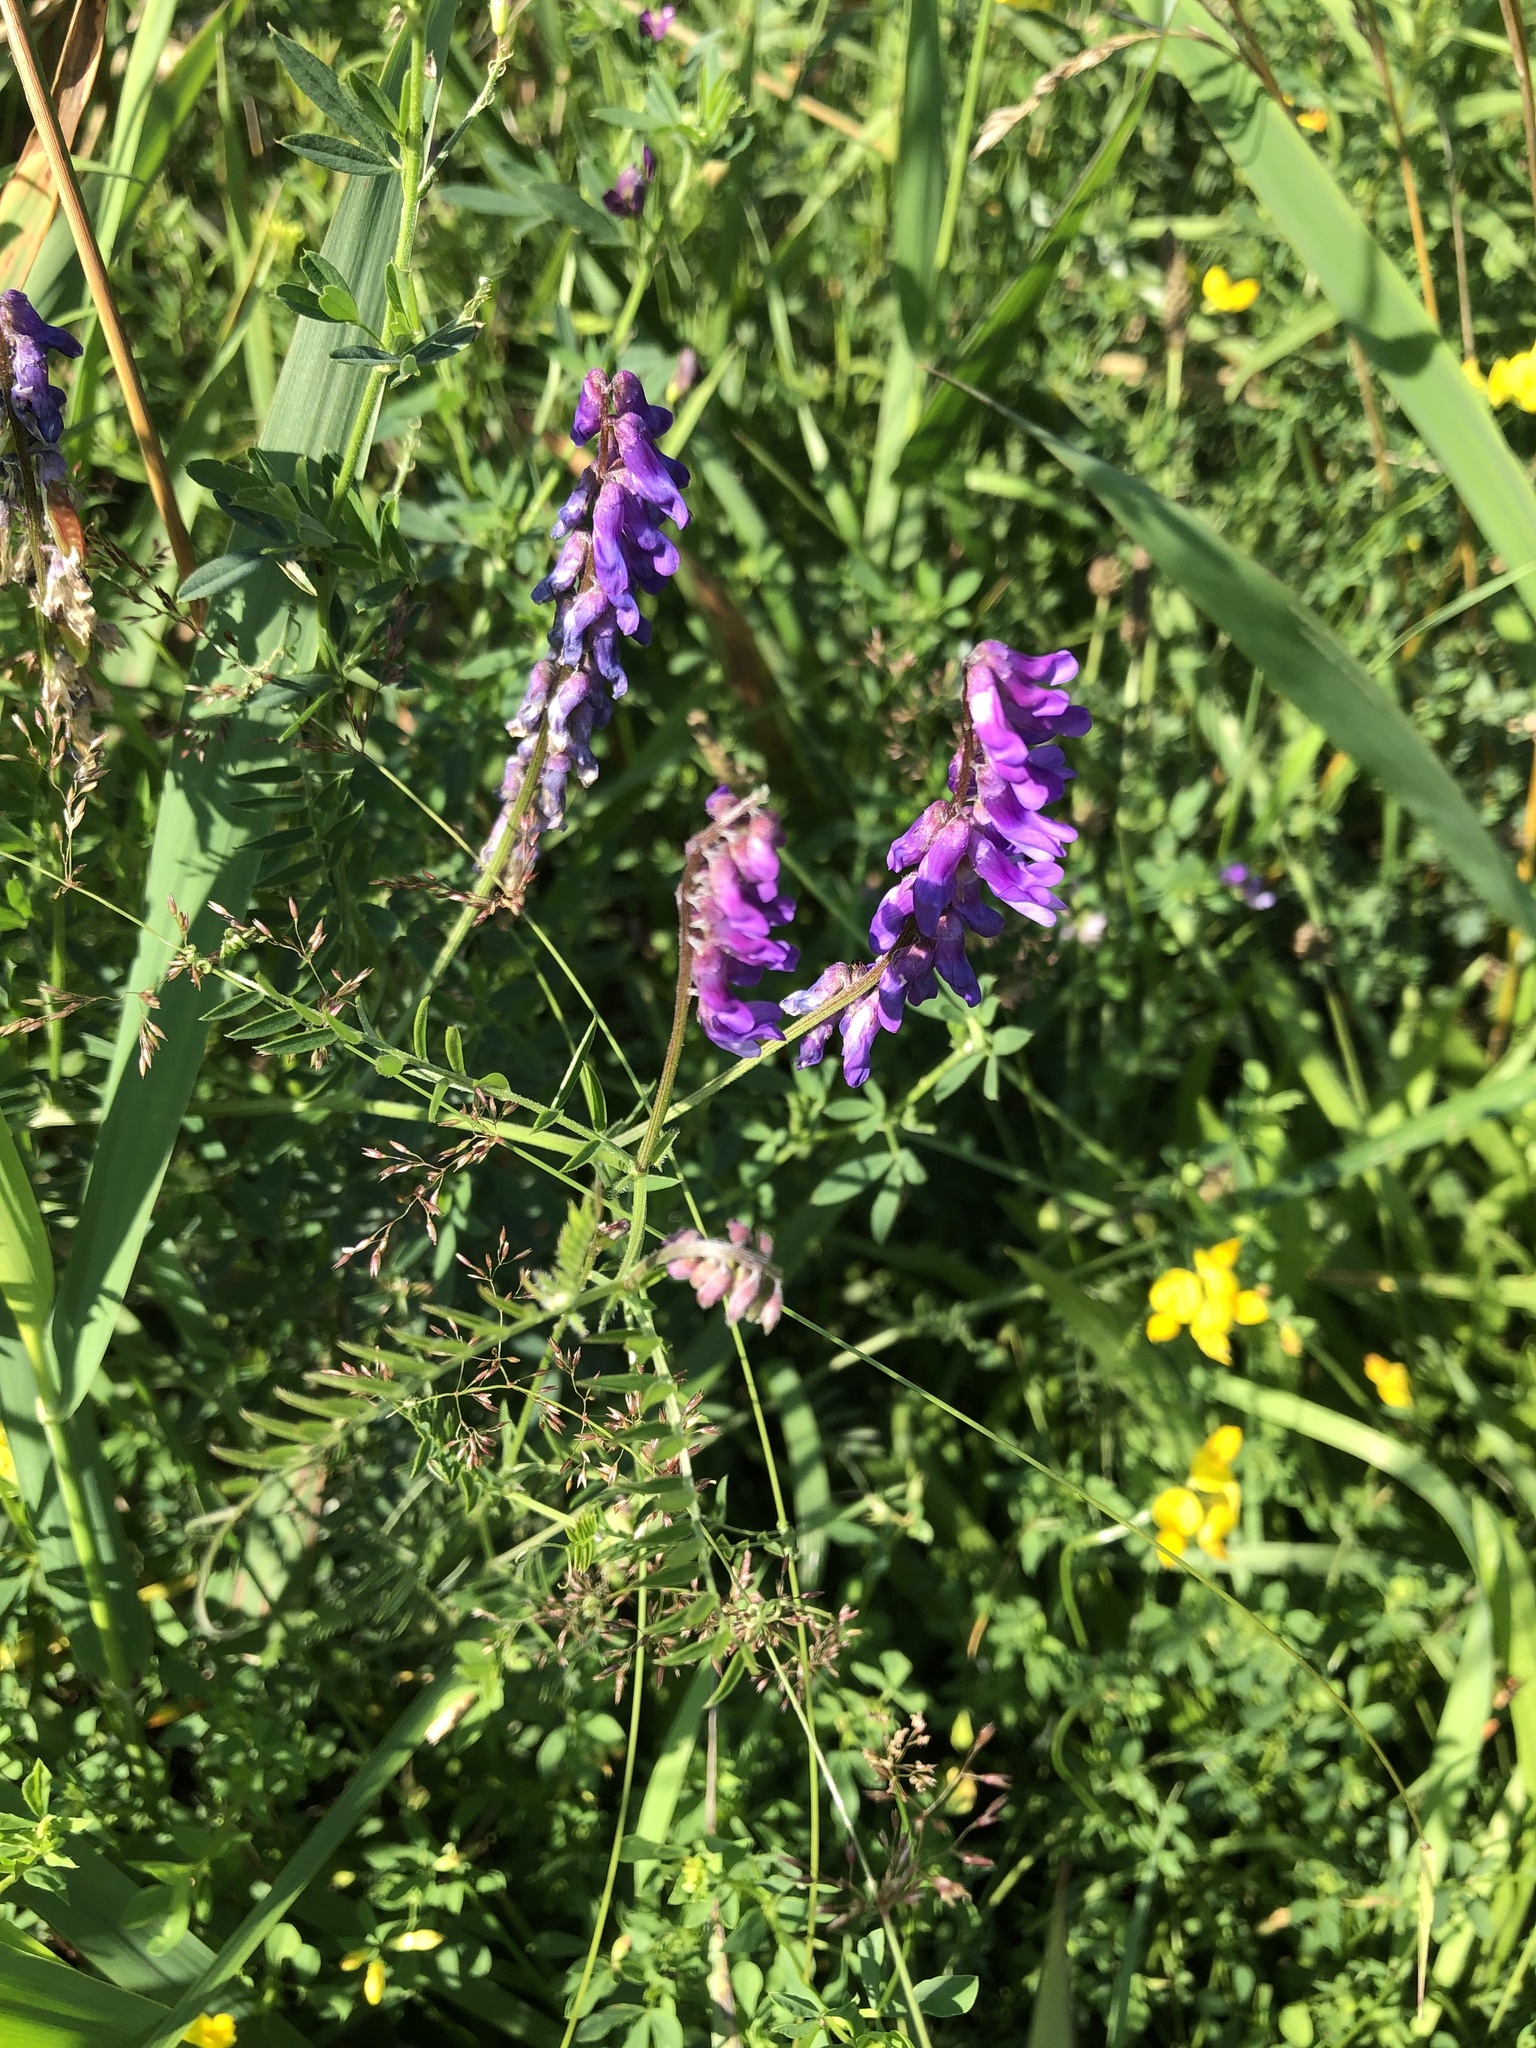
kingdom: Plantae
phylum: Tracheophyta
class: Magnoliopsida
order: Fabales
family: Fabaceae
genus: Vicia
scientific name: Vicia cracca
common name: Bird vetch
